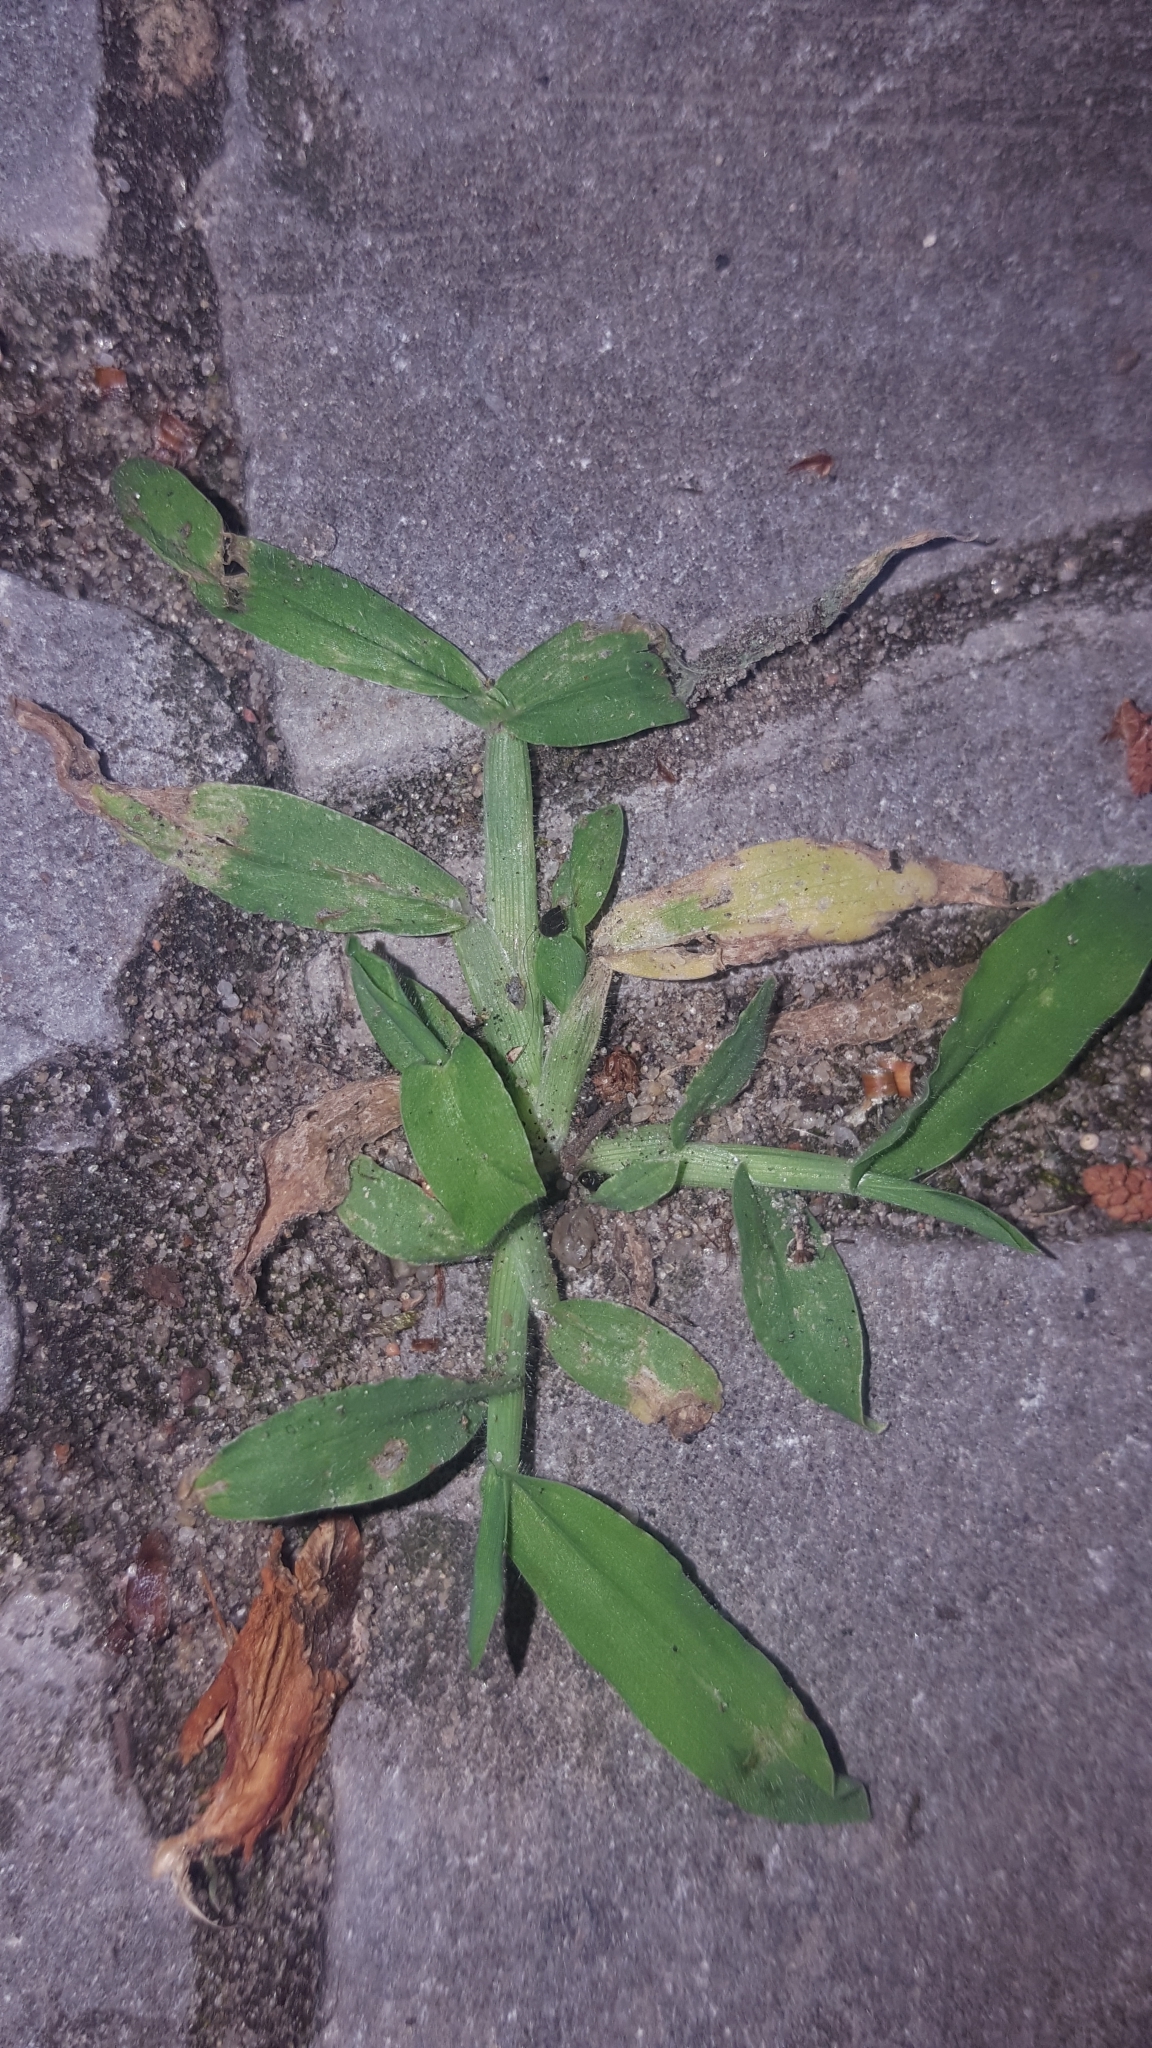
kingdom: Plantae
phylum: Tracheophyta
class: Liliopsida
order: Poales
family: Poaceae
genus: Digitaria
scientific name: Digitaria sanguinalis
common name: Hairy crabgrass
